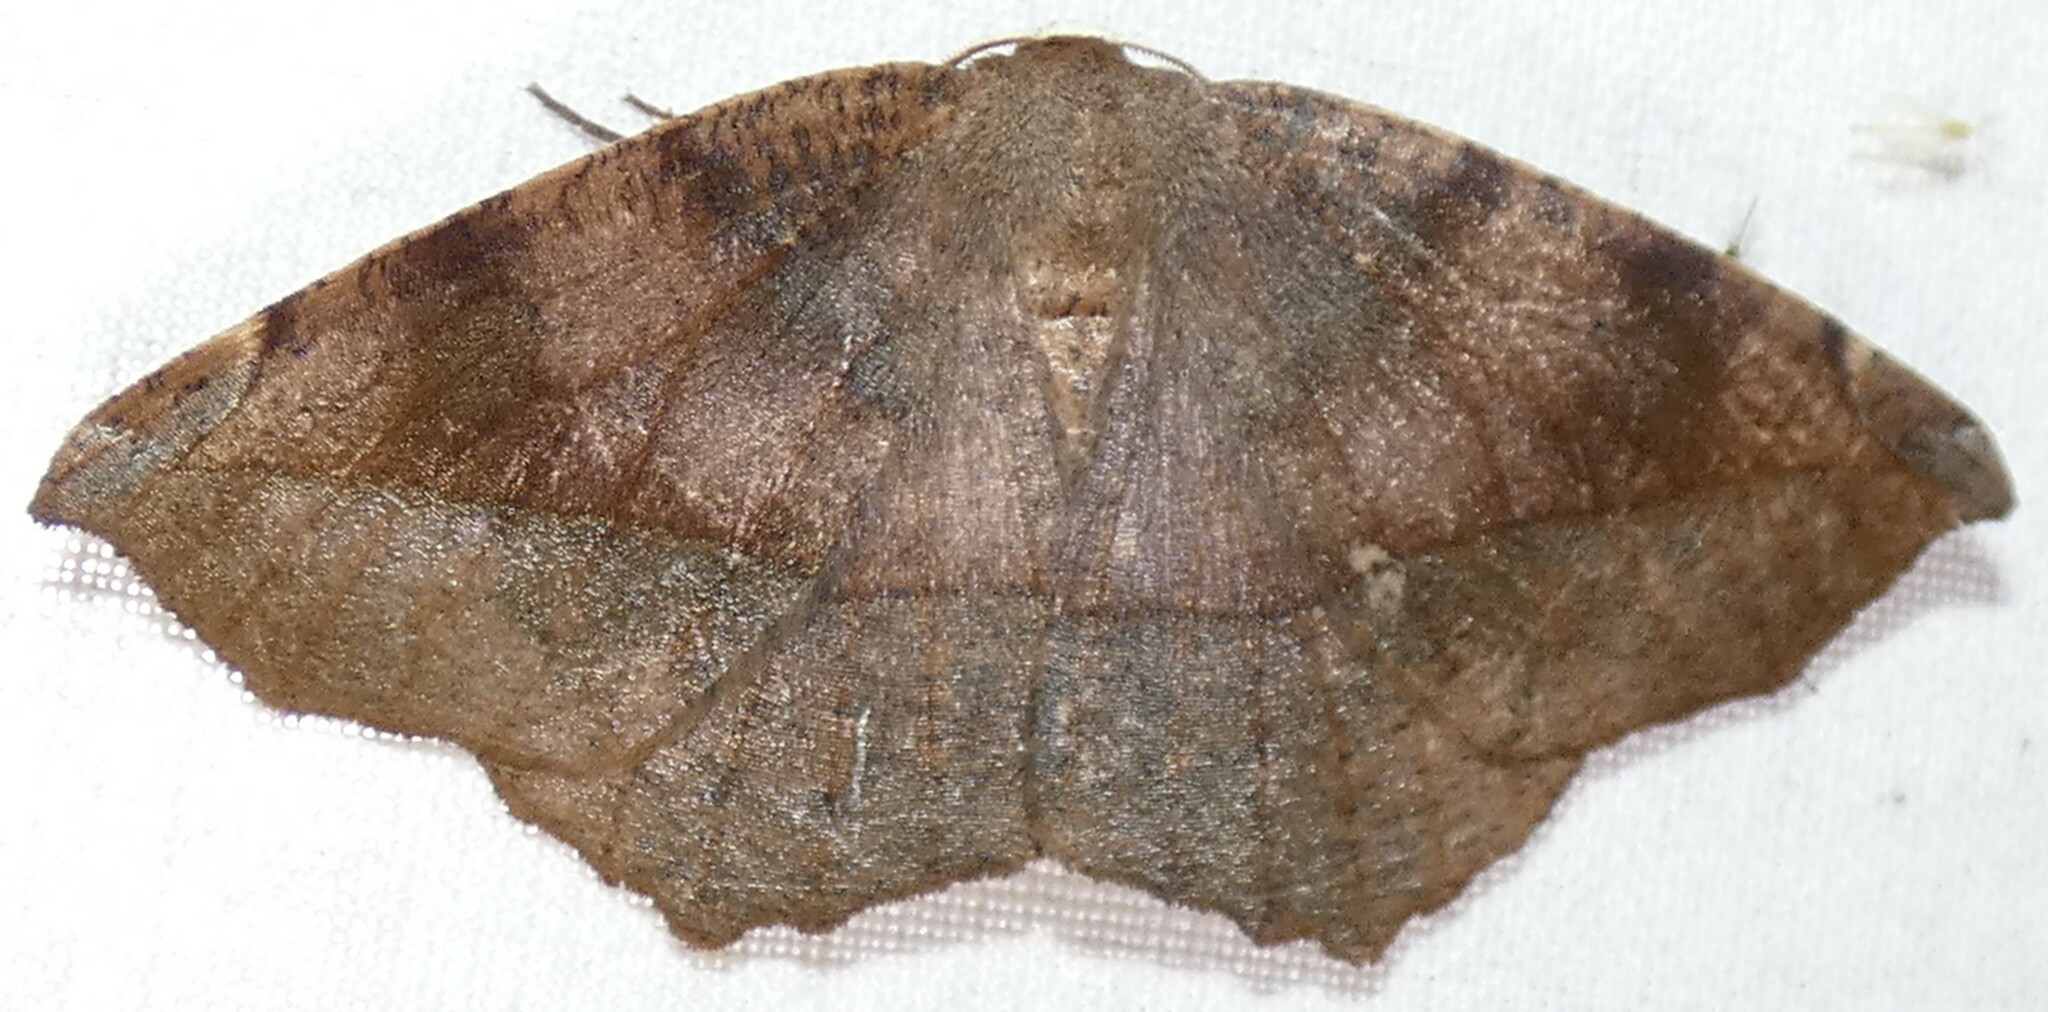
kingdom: Animalia
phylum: Arthropoda
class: Insecta
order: Lepidoptera
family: Geometridae
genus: Eutrapela
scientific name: Eutrapela clemataria
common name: Curved-toothed geometer
